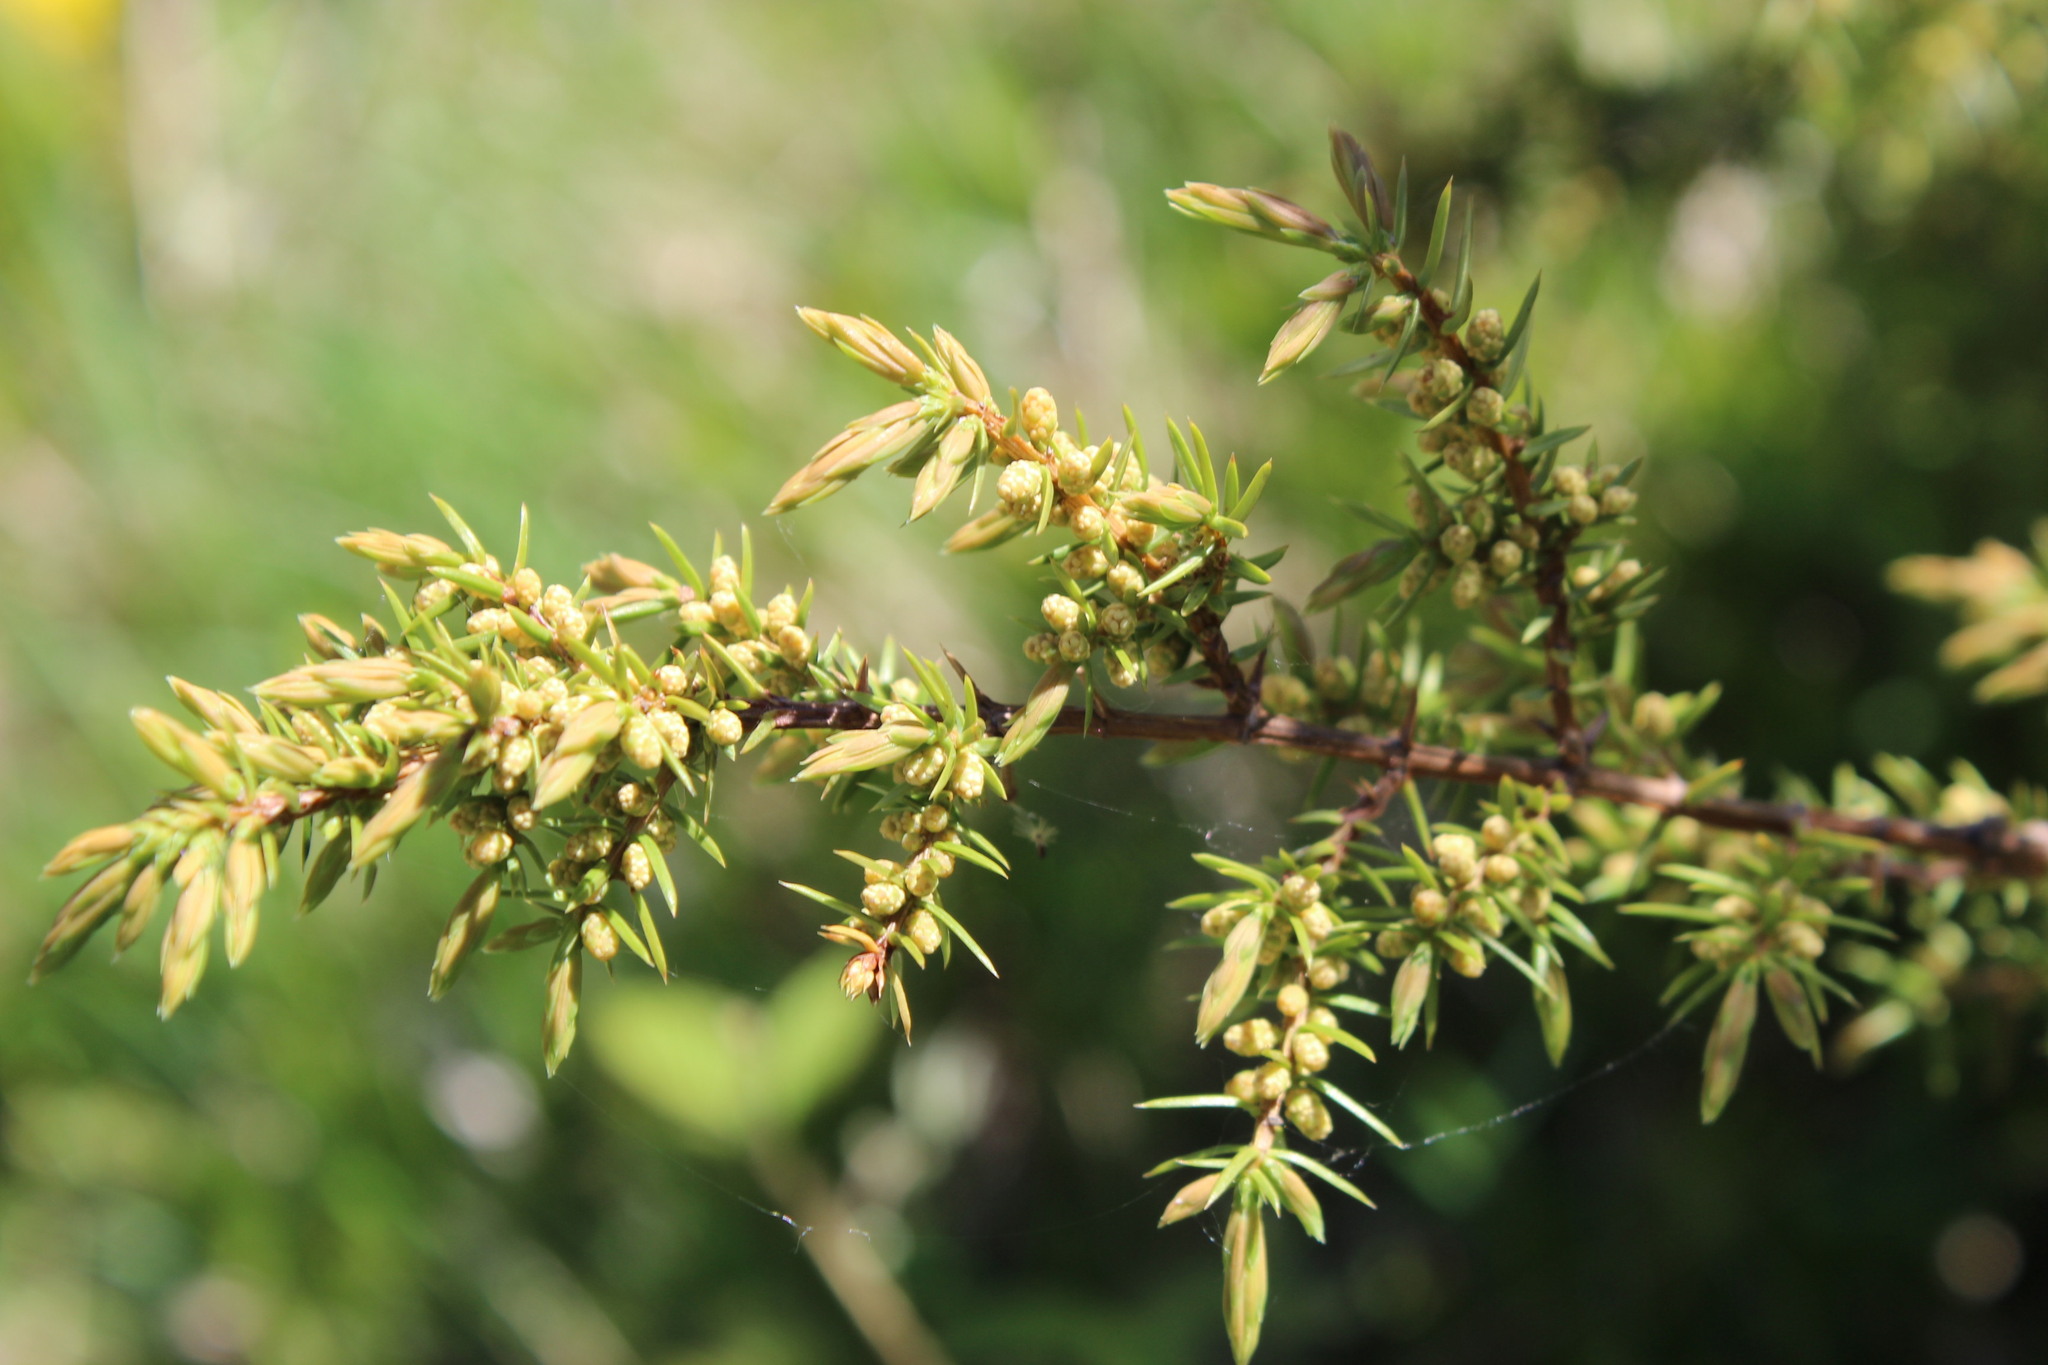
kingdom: Plantae
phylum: Tracheophyta
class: Pinopsida
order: Pinales
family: Cupressaceae
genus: Juniperus
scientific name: Juniperus communis
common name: Common juniper
